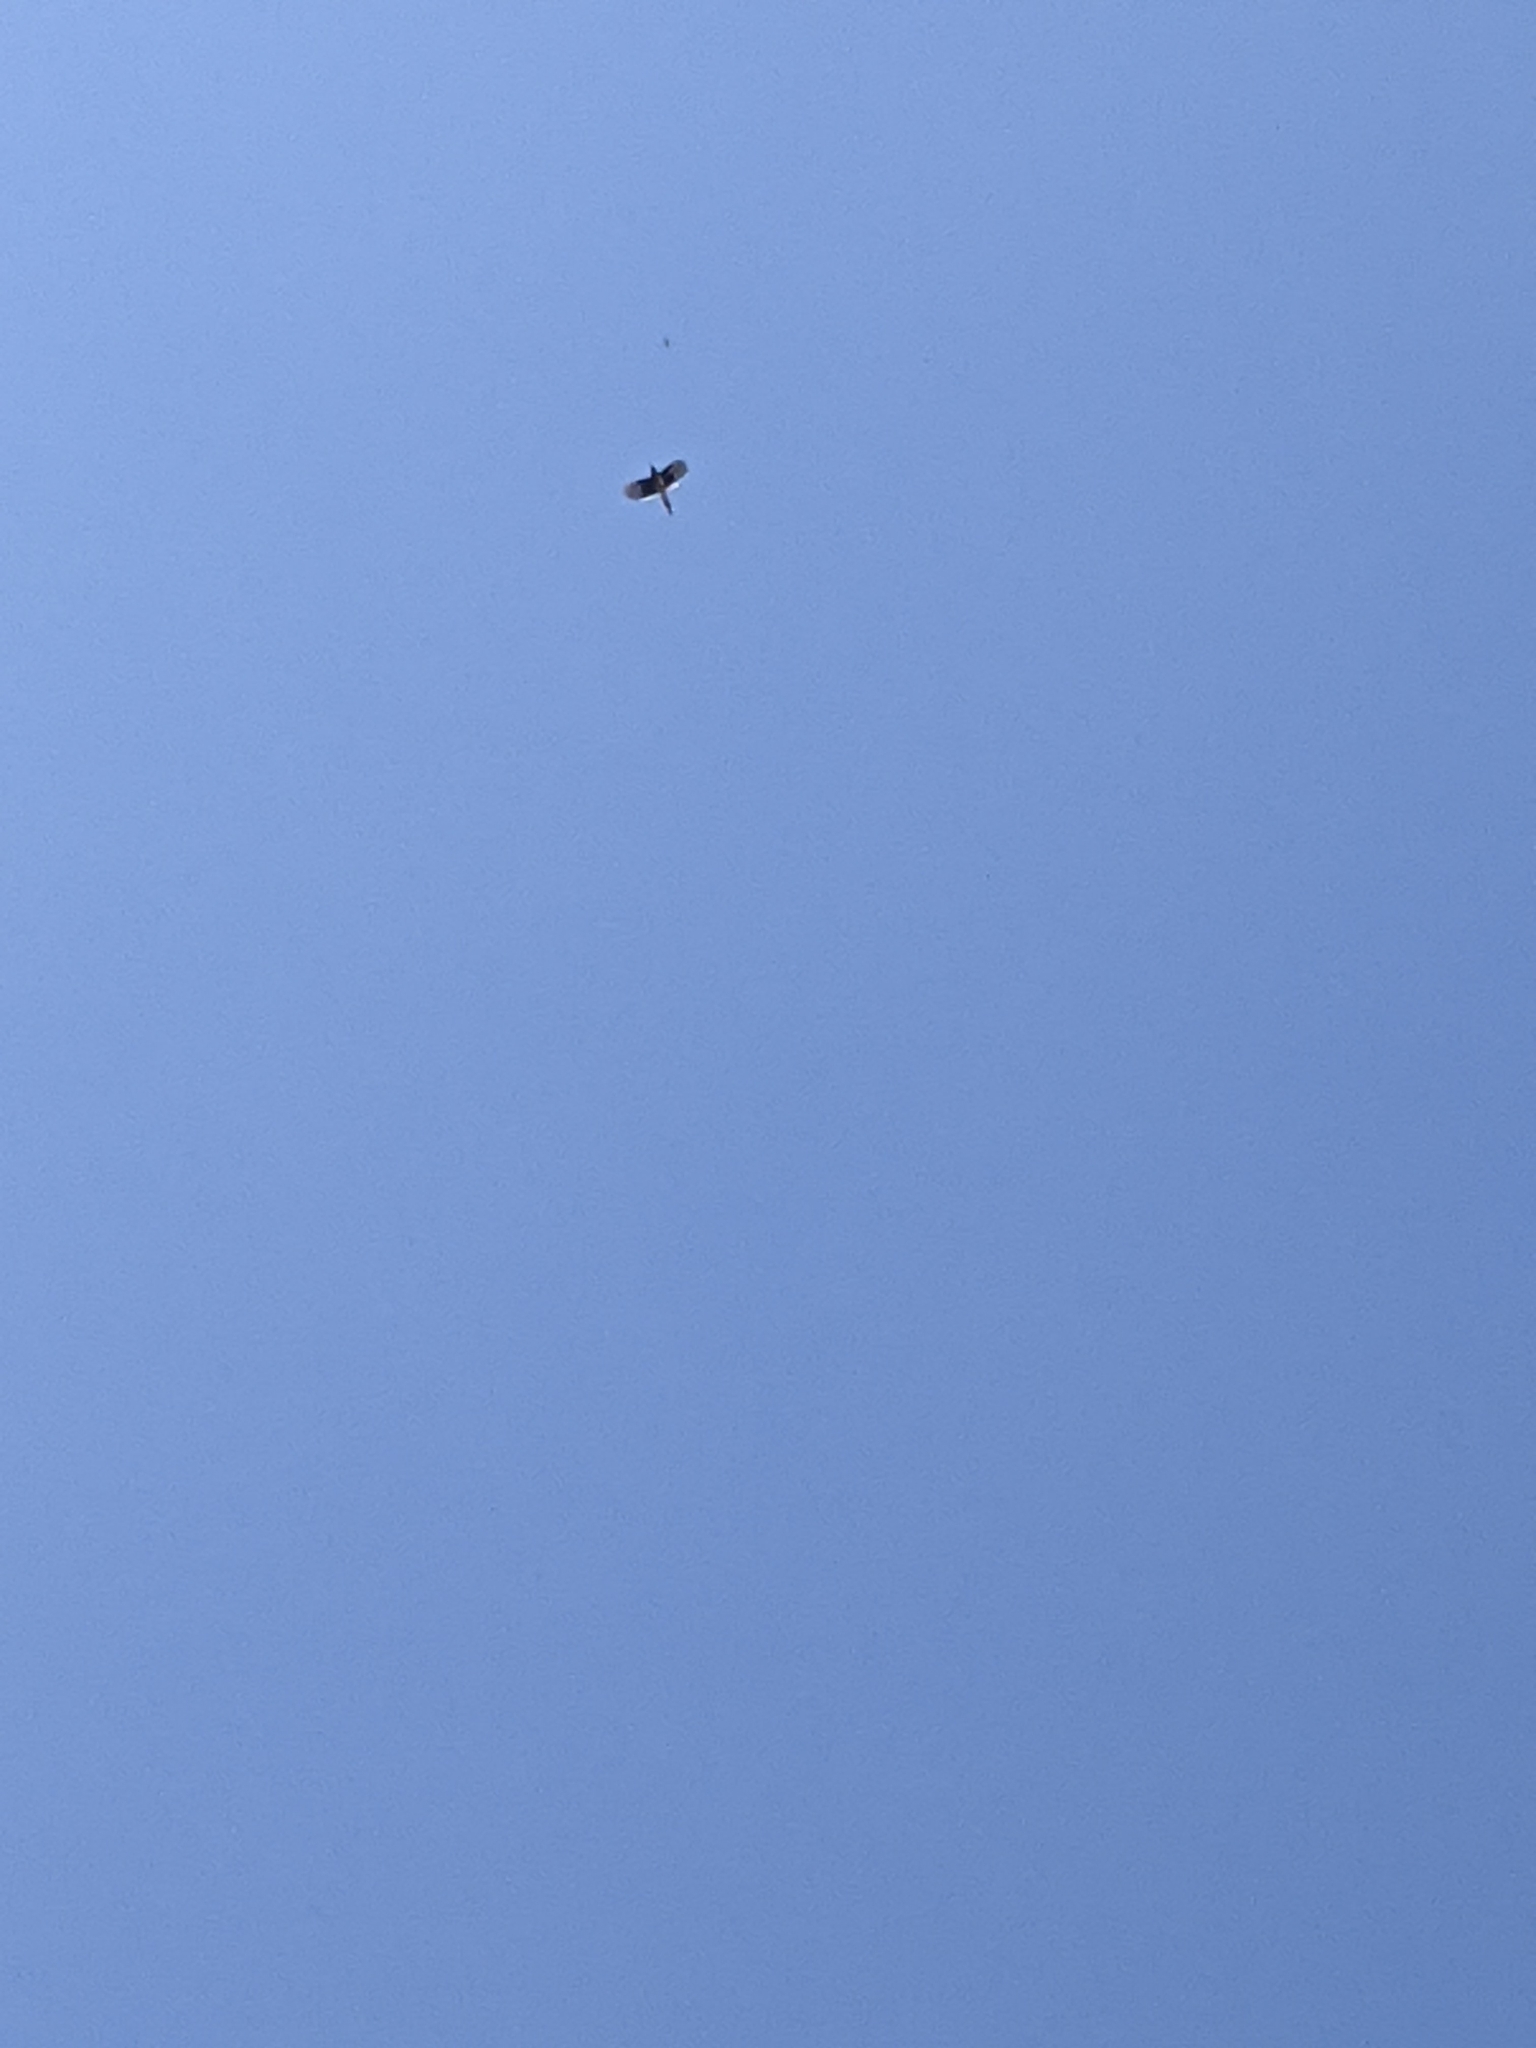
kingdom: Animalia
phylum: Chordata
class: Aves
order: Passeriformes
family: Corvidae
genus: Cyanocitta
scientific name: Cyanocitta cristata
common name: Blue jay
